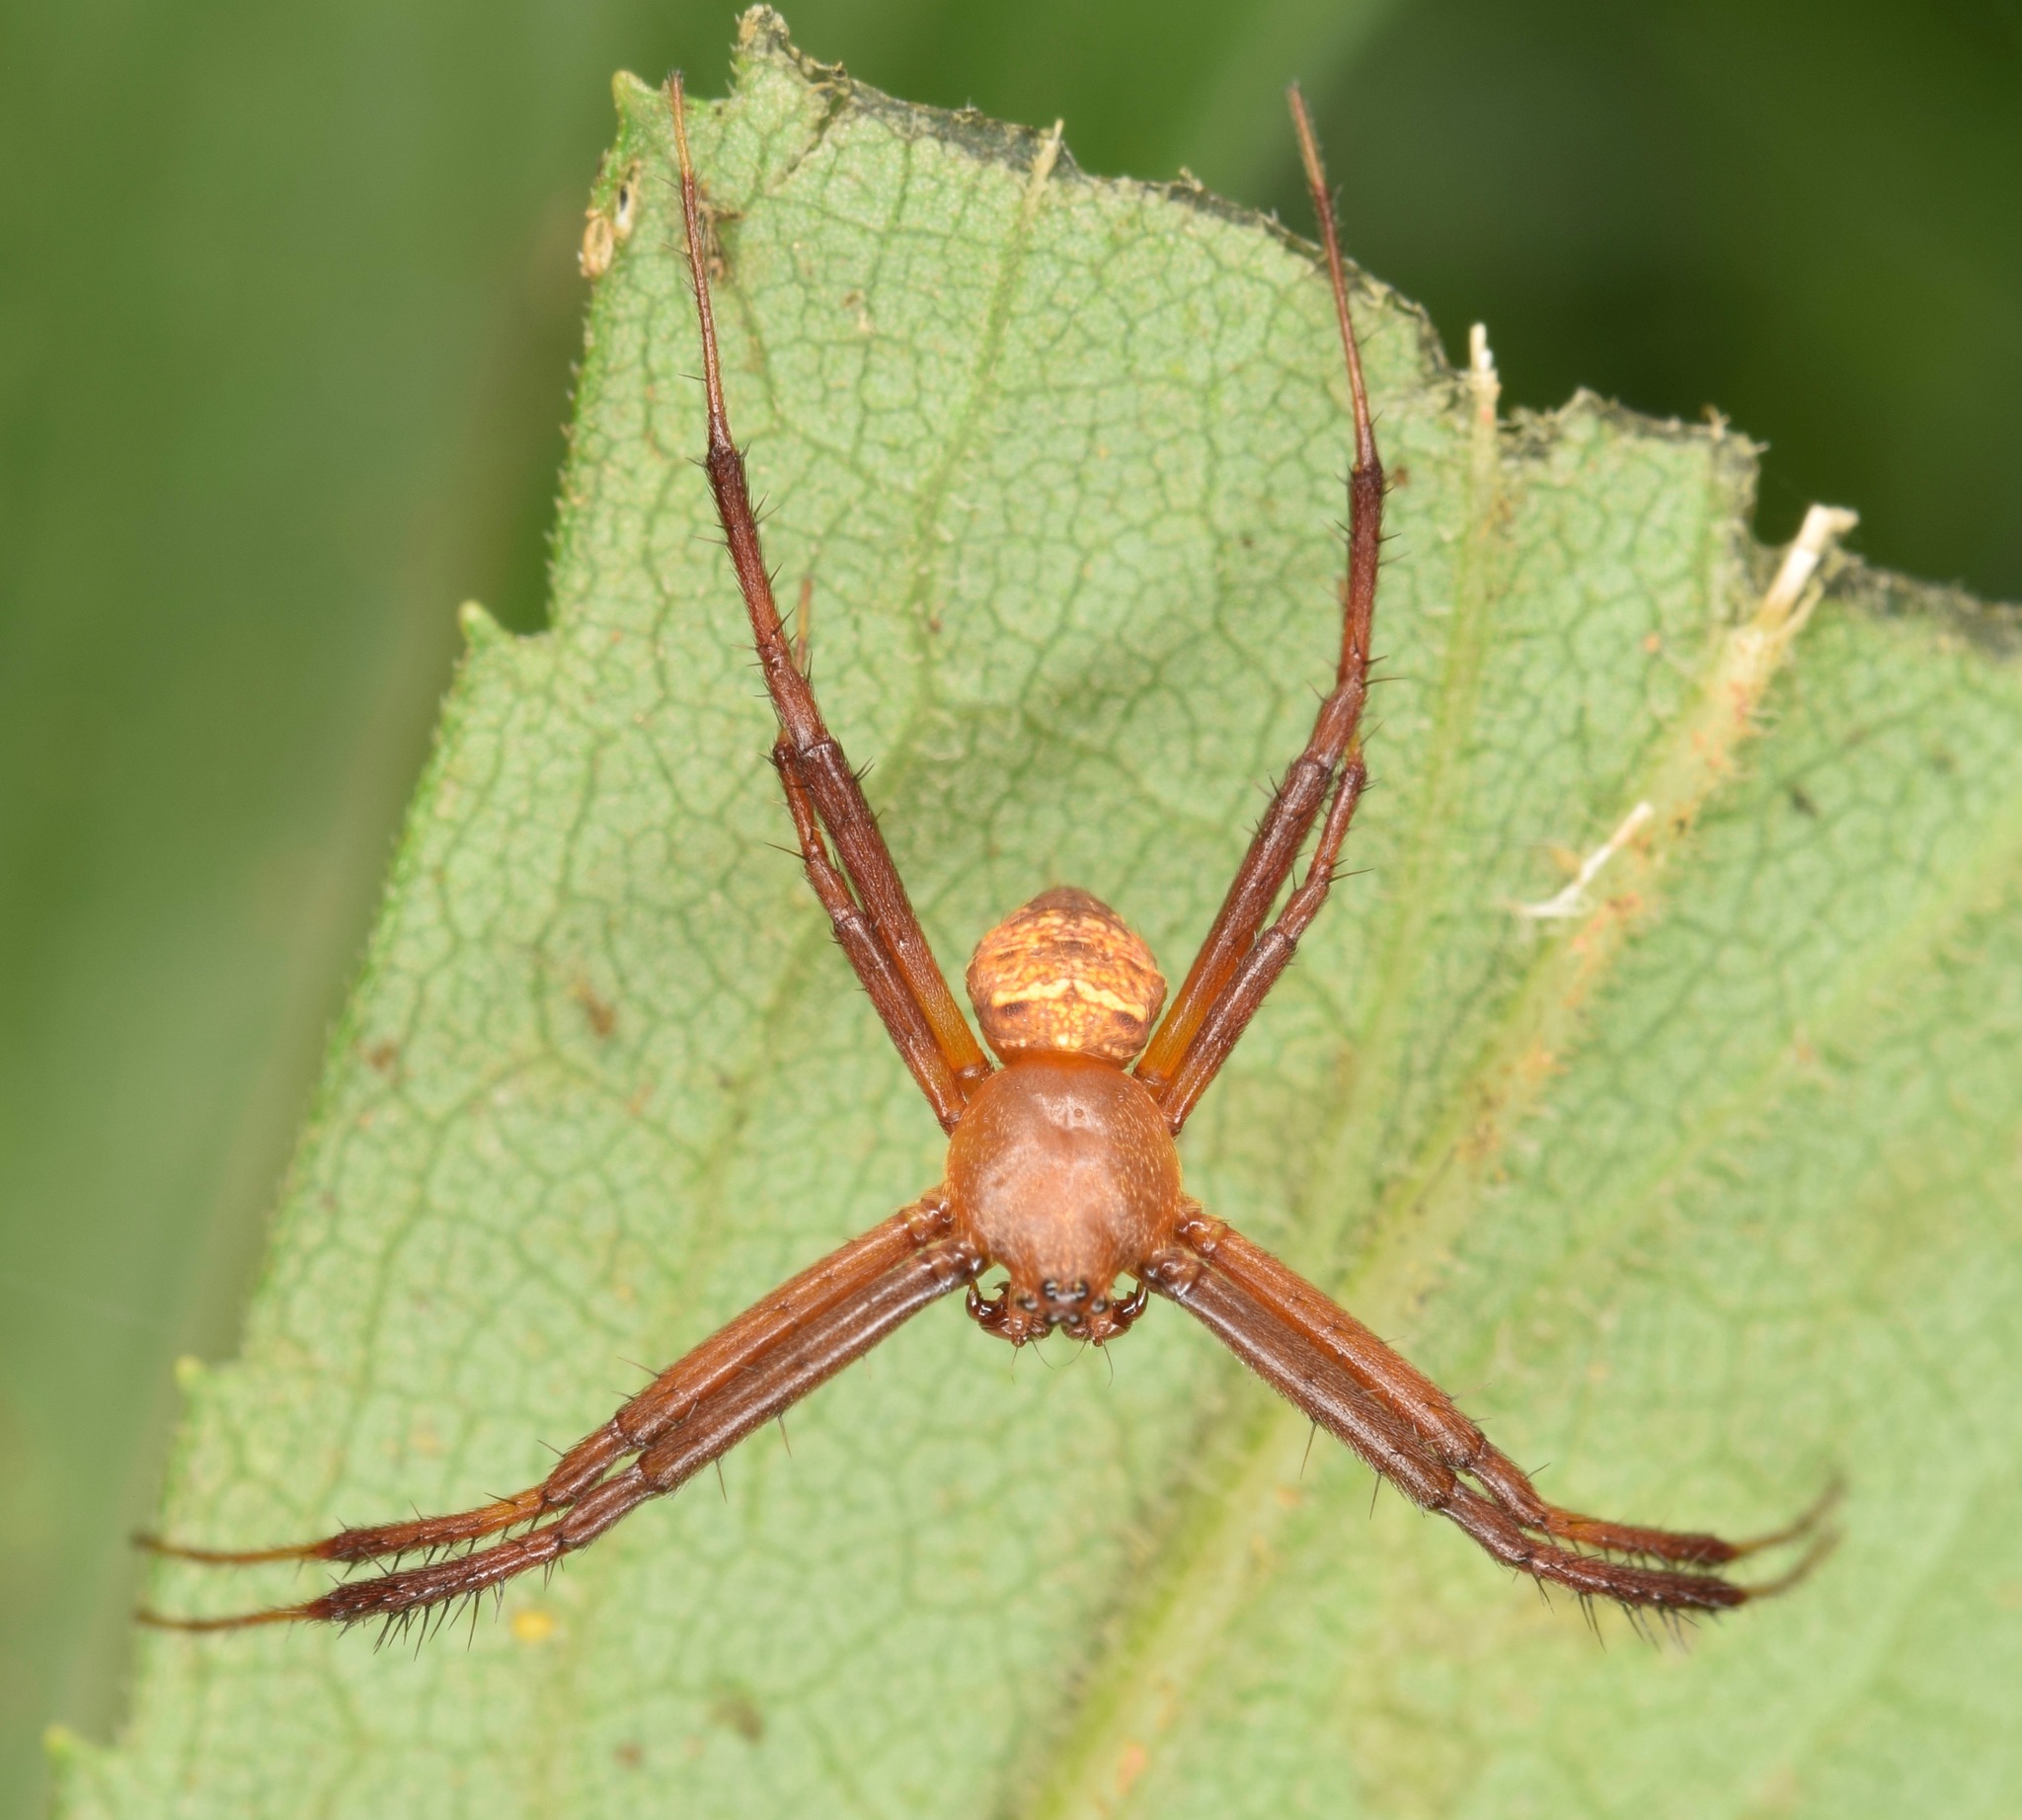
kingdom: Animalia
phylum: Arthropoda
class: Arachnida
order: Araneae
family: Araneidae
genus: Gea
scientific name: Gea heptagon
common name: Orb weavers
